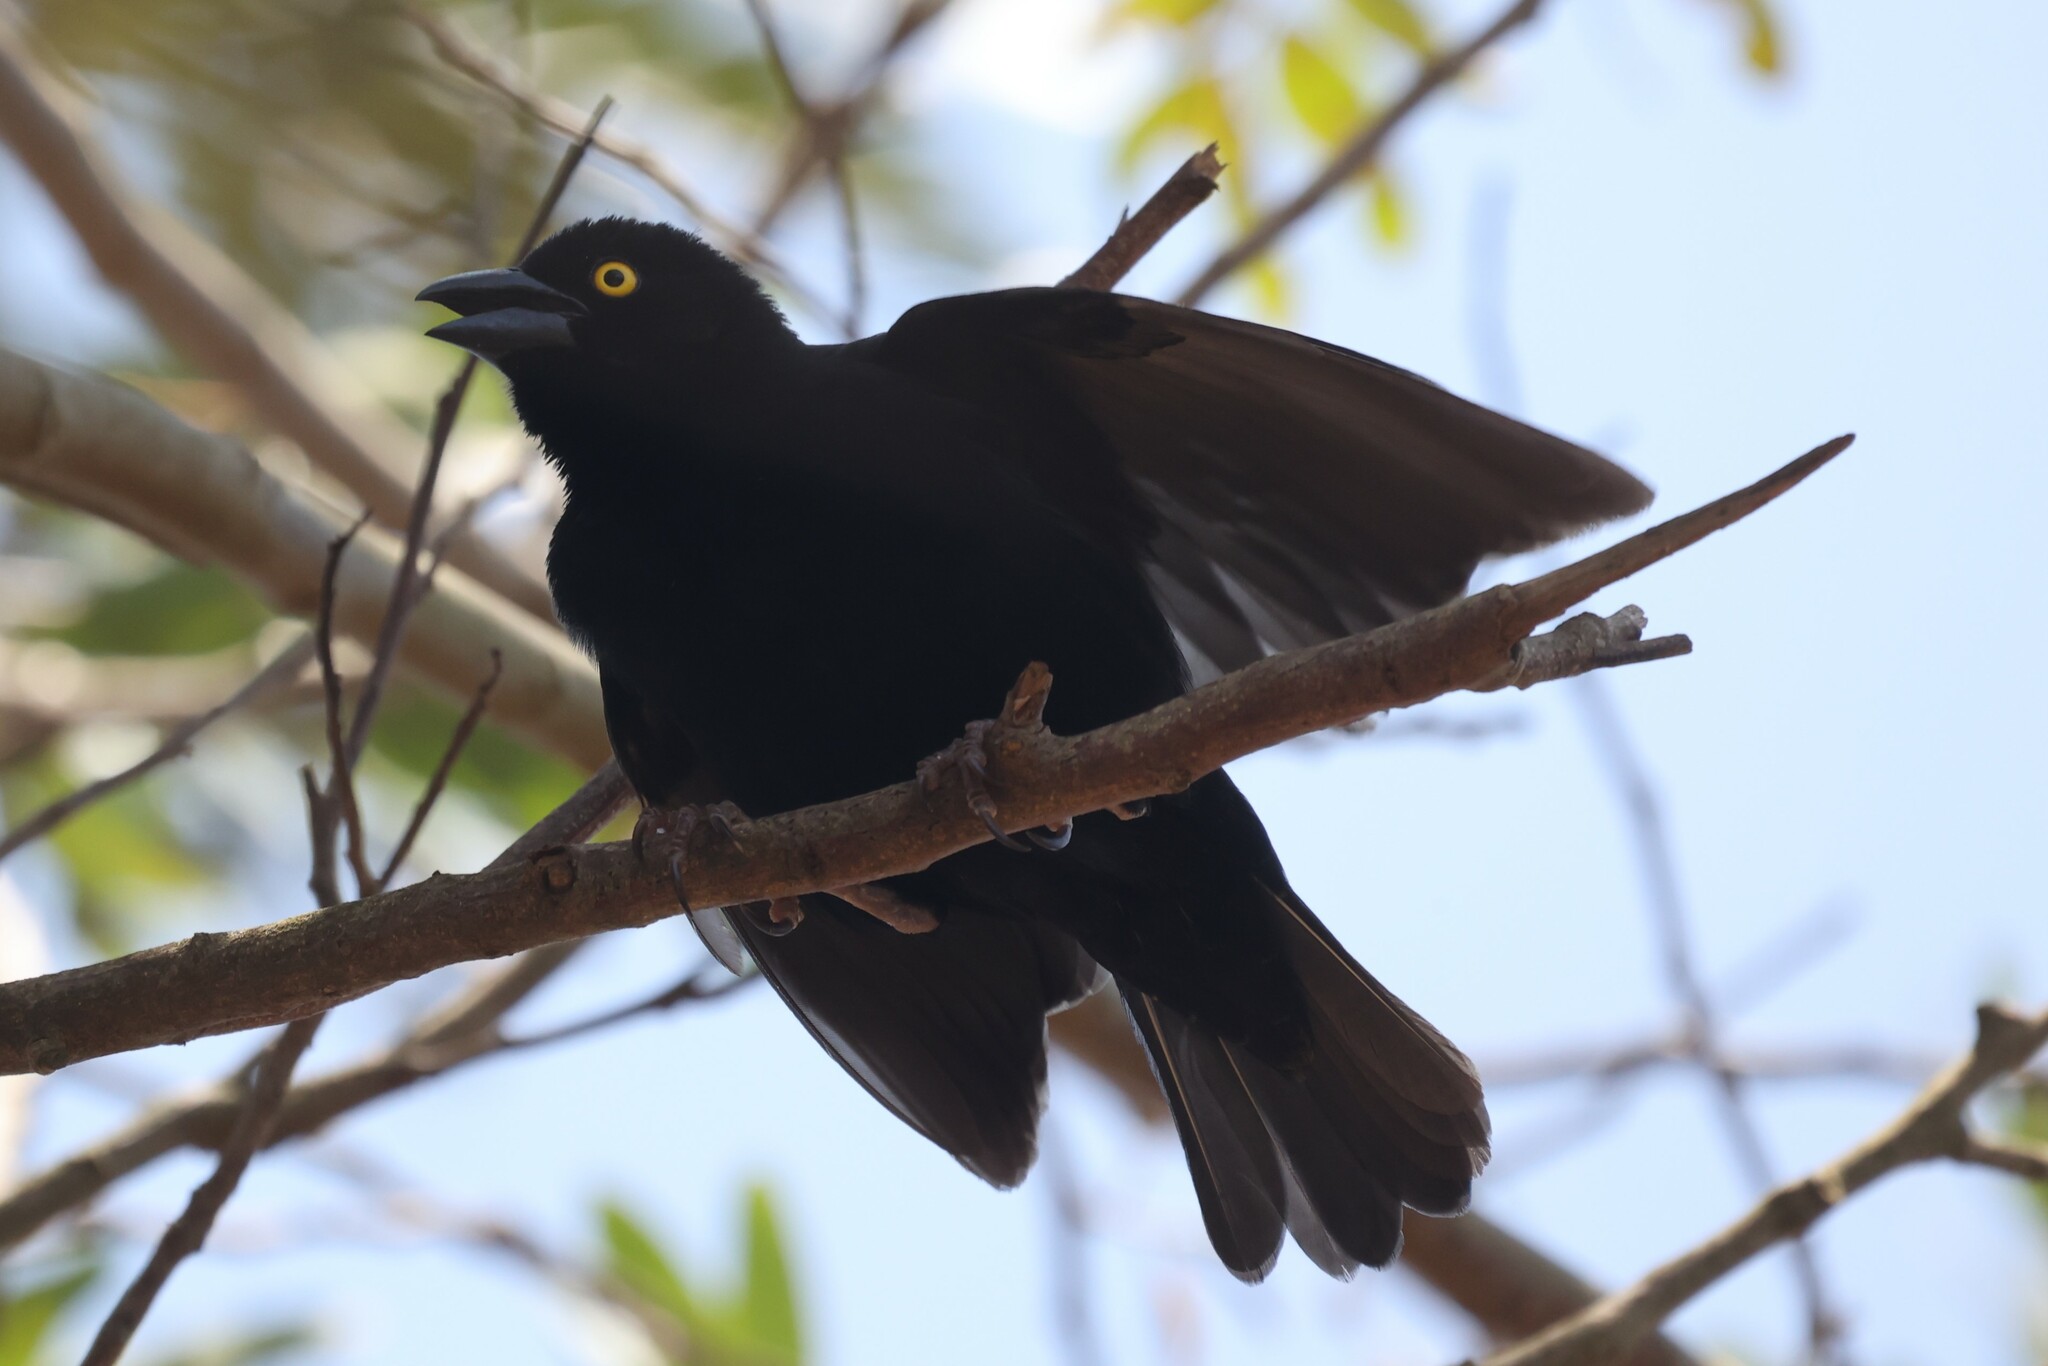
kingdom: Animalia
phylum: Chordata
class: Aves
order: Passeriformes
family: Ploceidae
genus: Ploceus
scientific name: Ploceus nigerrimus
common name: Vieillot's black weaver
